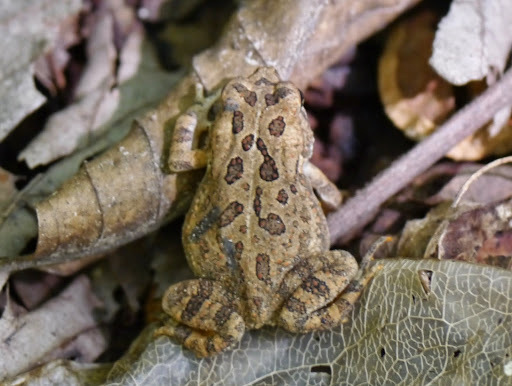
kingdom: Animalia
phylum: Chordata
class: Amphibia
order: Anura
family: Bufonidae
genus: Anaxyrus
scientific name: Anaxyrus fowleri
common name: Fowler's toad
